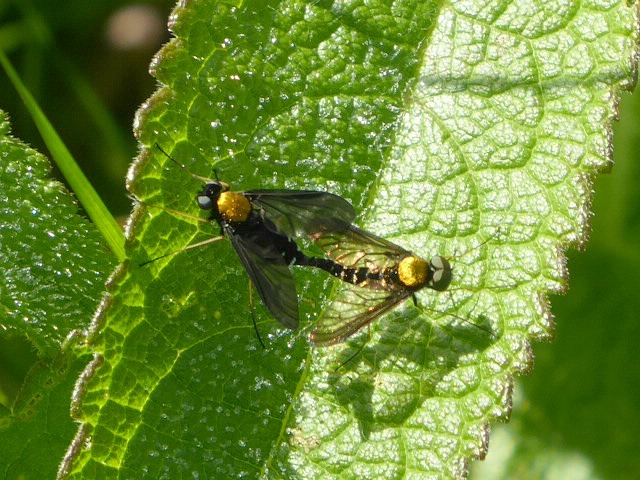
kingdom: Animalia
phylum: Arthropoda
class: Insecta
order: Diptera
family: Rhagionidae
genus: Chrysopilus
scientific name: Chrysopilus thoracicus
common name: Golden-backed snipe fly
